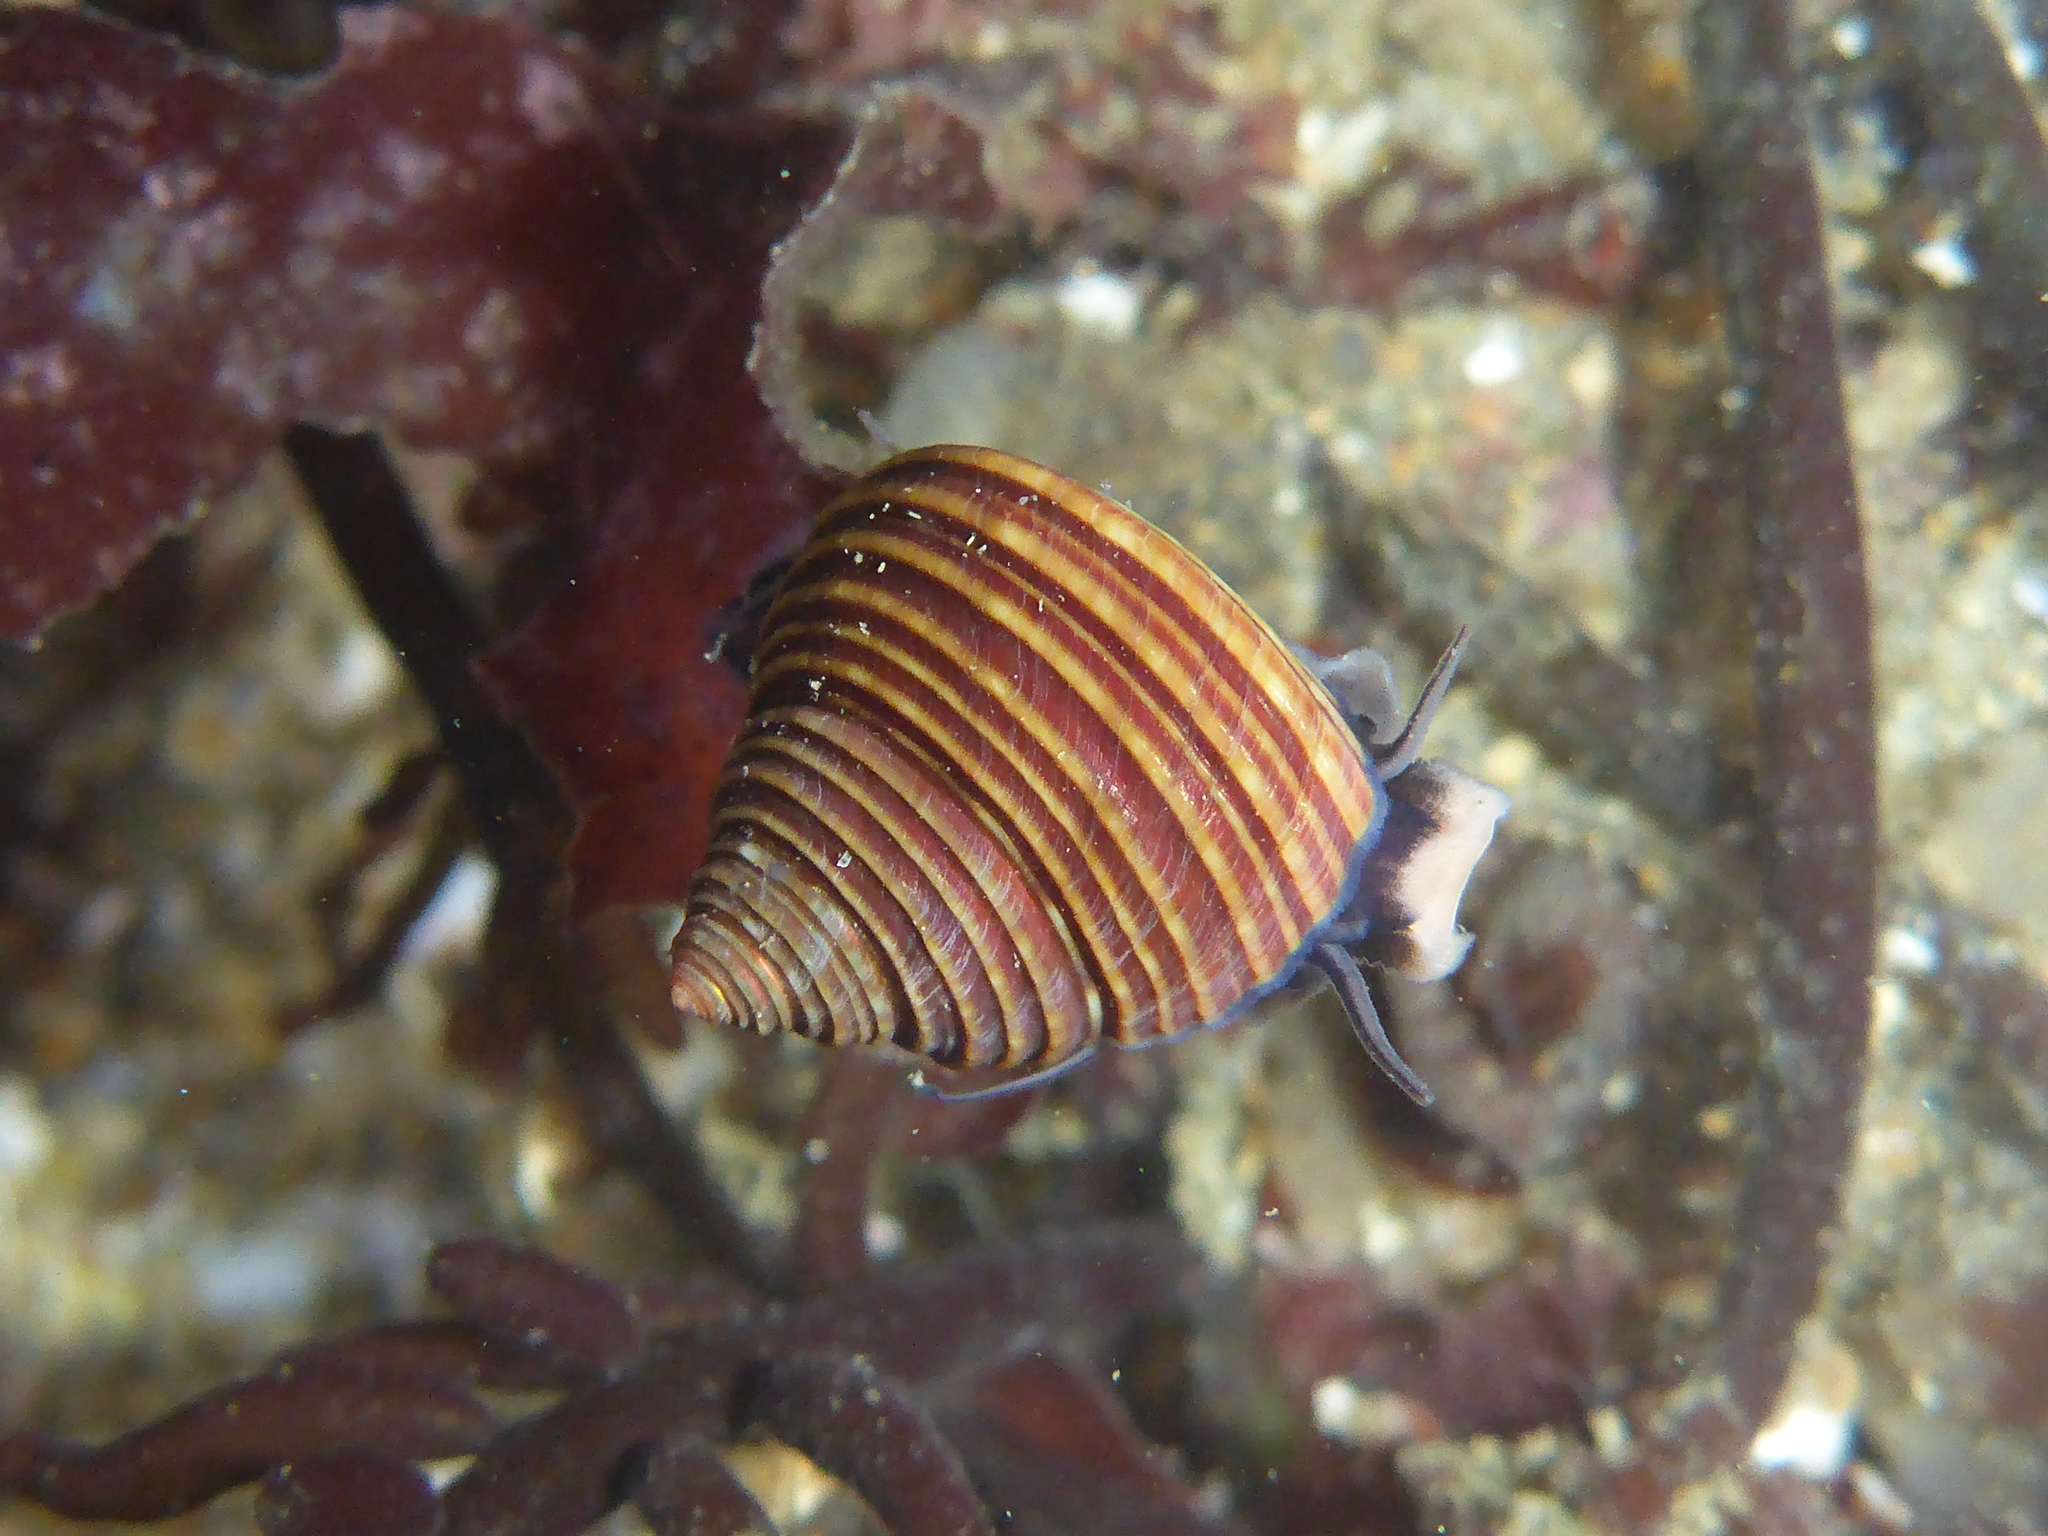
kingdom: Animalia
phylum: Mollusca
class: Gastropoda
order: Trochida
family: Calliostomatidae
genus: Calliostoma
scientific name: Calliostoma ligatum
